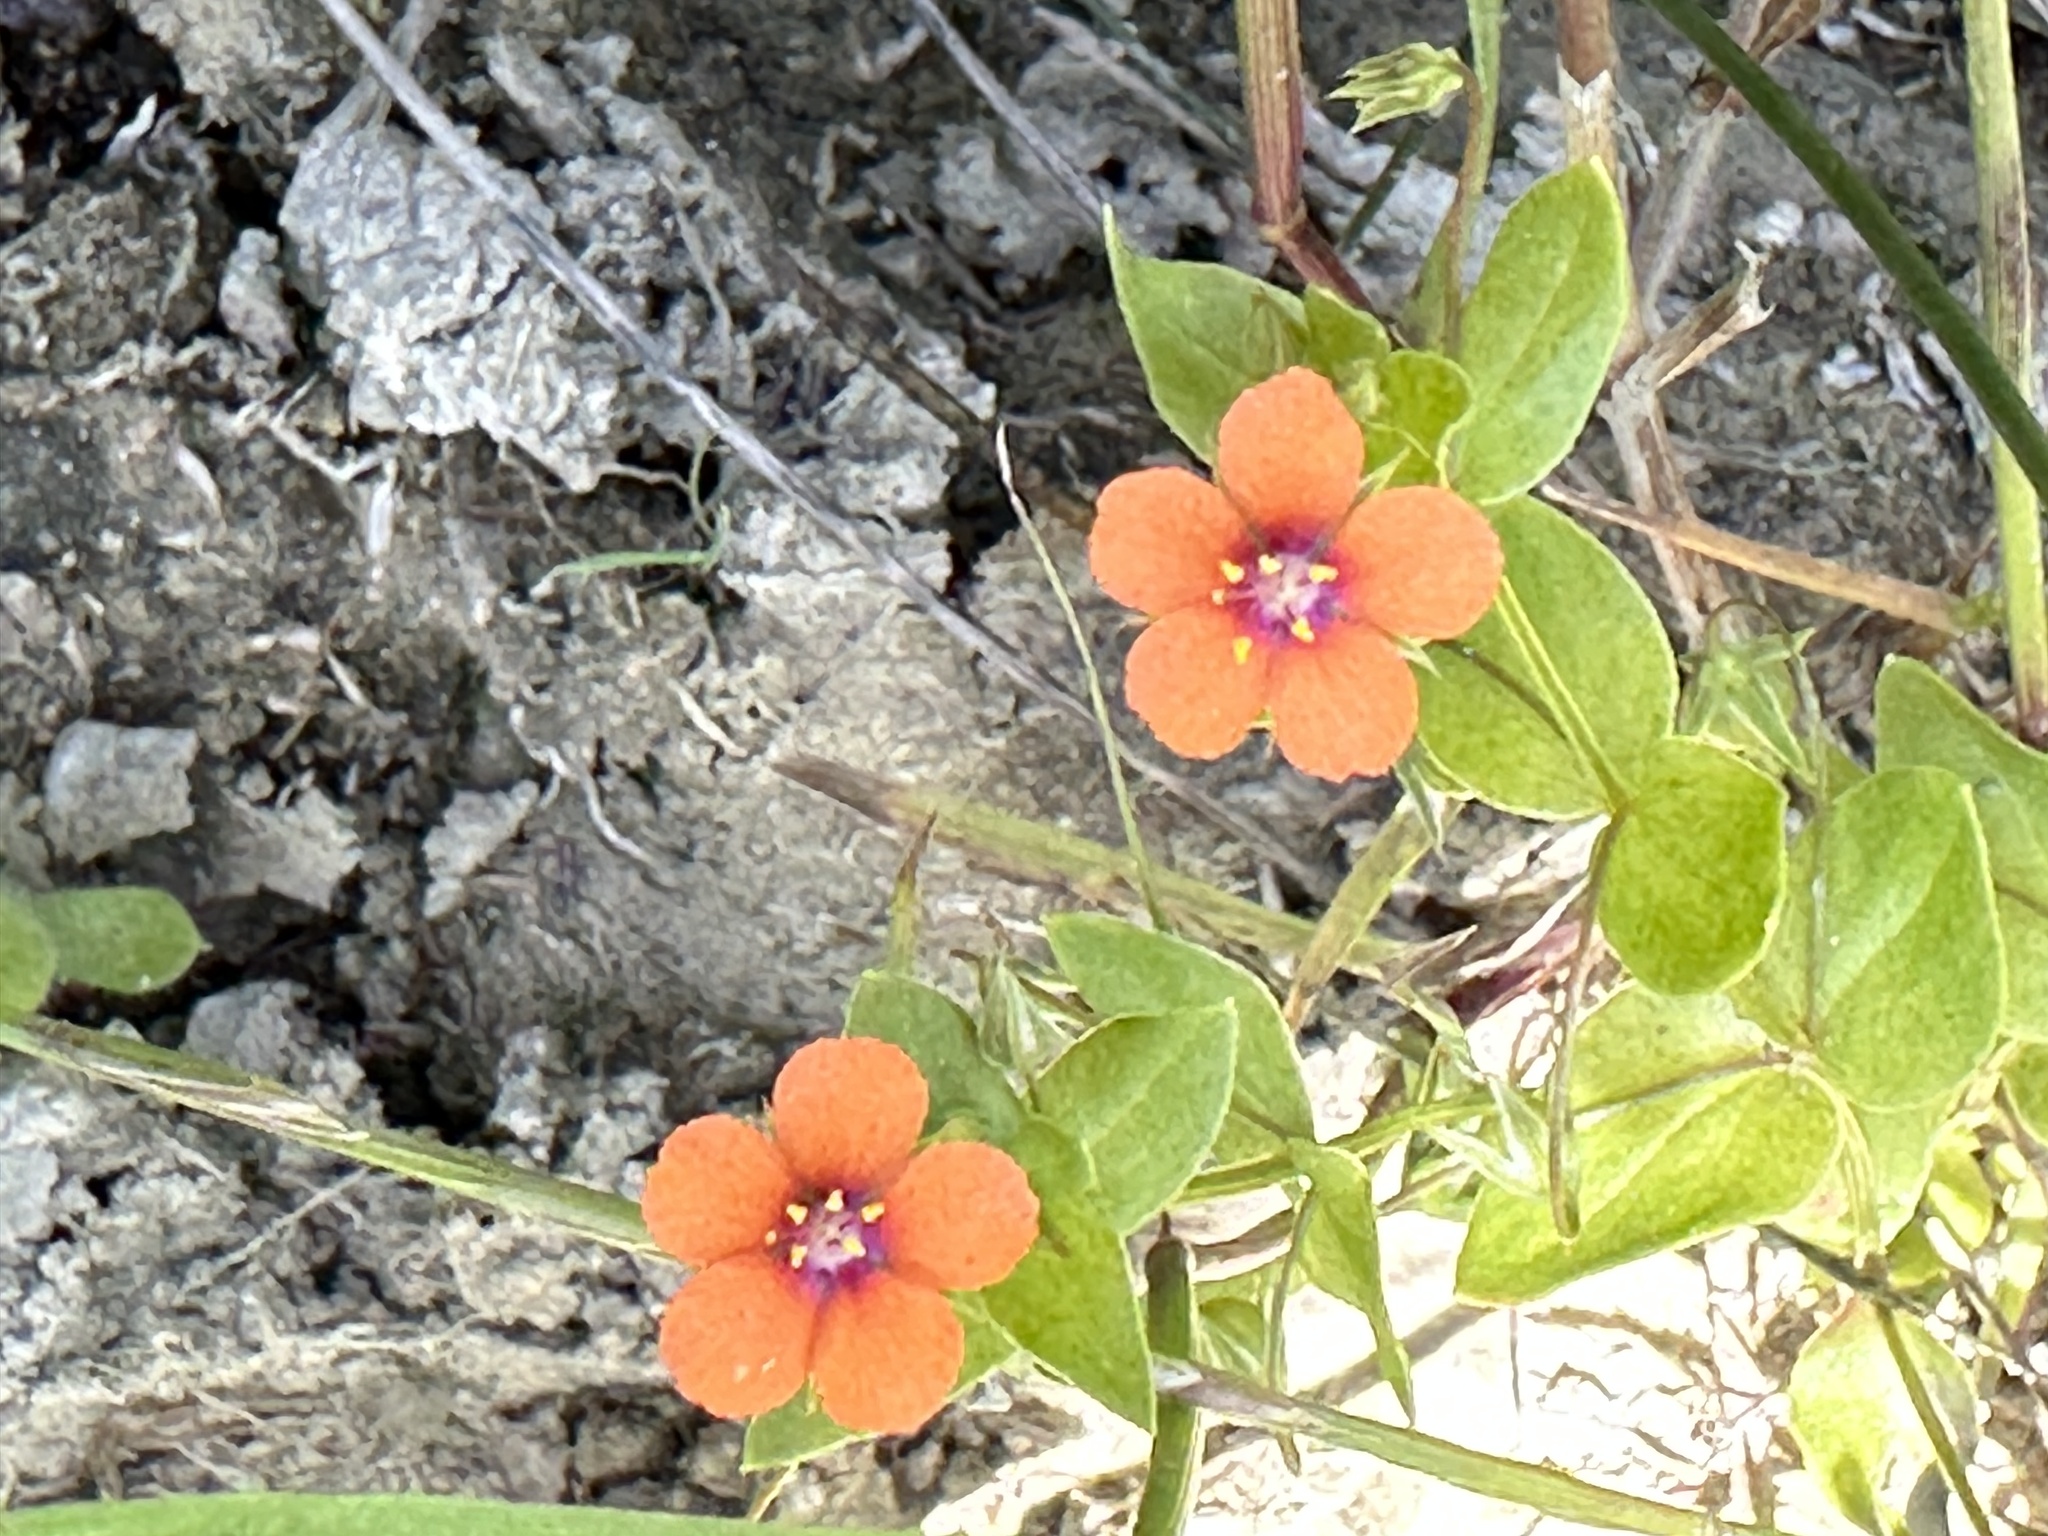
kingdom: Plantae
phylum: Tracheophyta
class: Magnoliopsida
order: Ericales
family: Primulaceae
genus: Lysimachia
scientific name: Lysimachia arvensis
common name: Scarlet pimpernel
